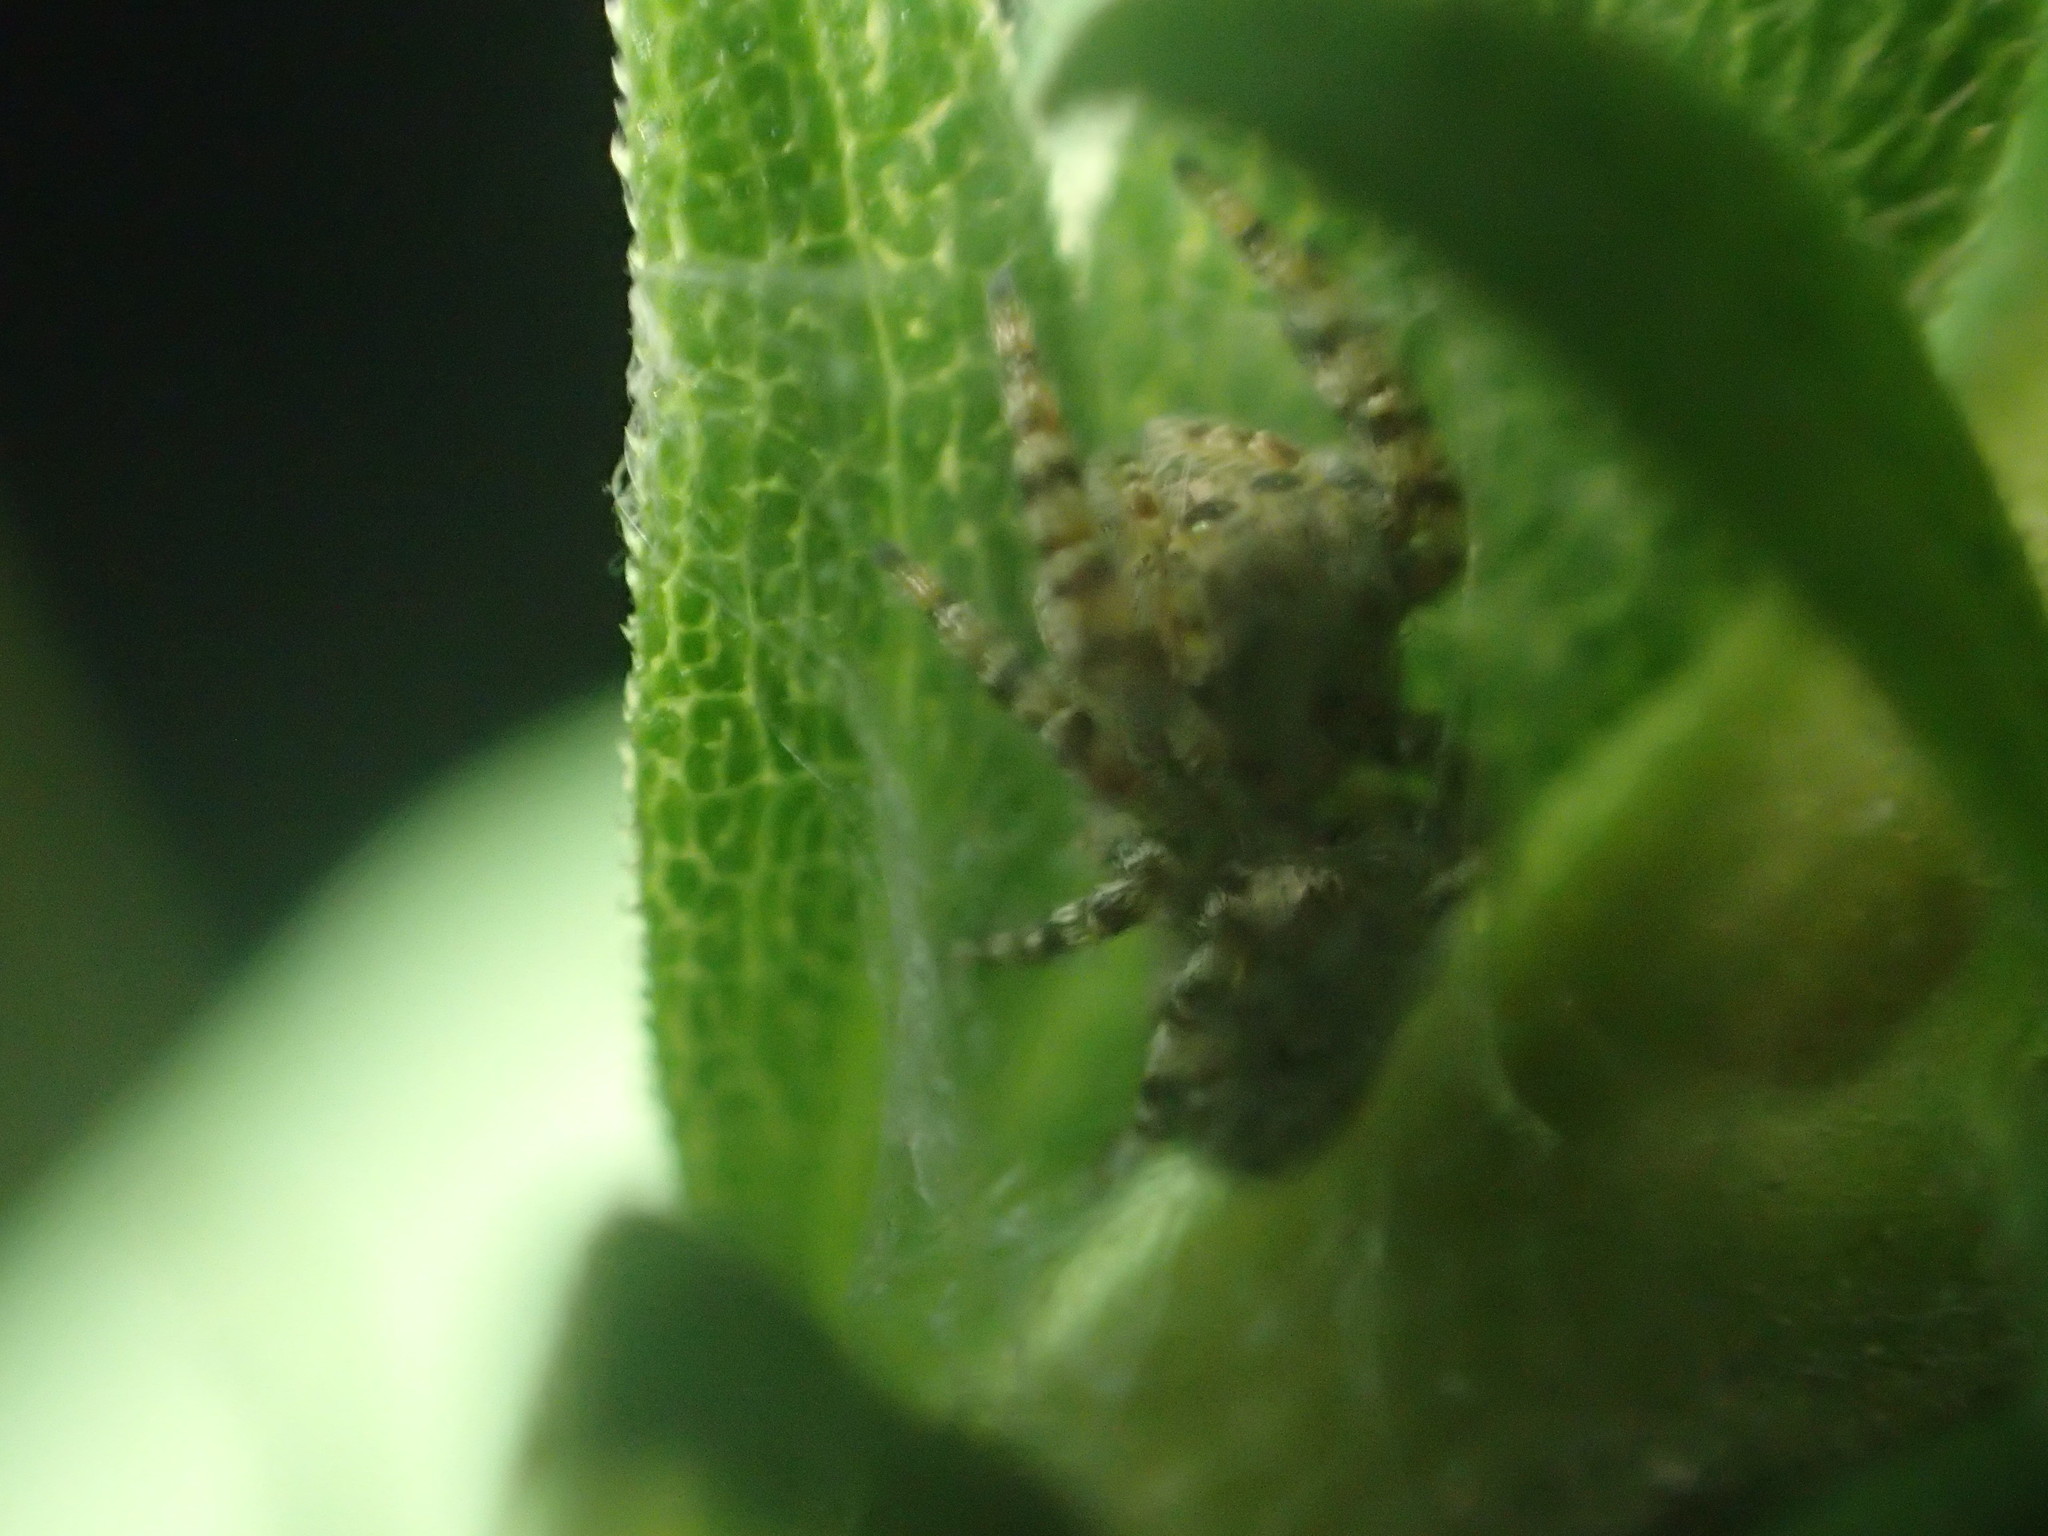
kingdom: Animalia
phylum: Arthropoda
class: Arachnida
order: Araneae
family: Salticidae
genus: Pelegrina
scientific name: Pelegrina galathea
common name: Jumping spiders
